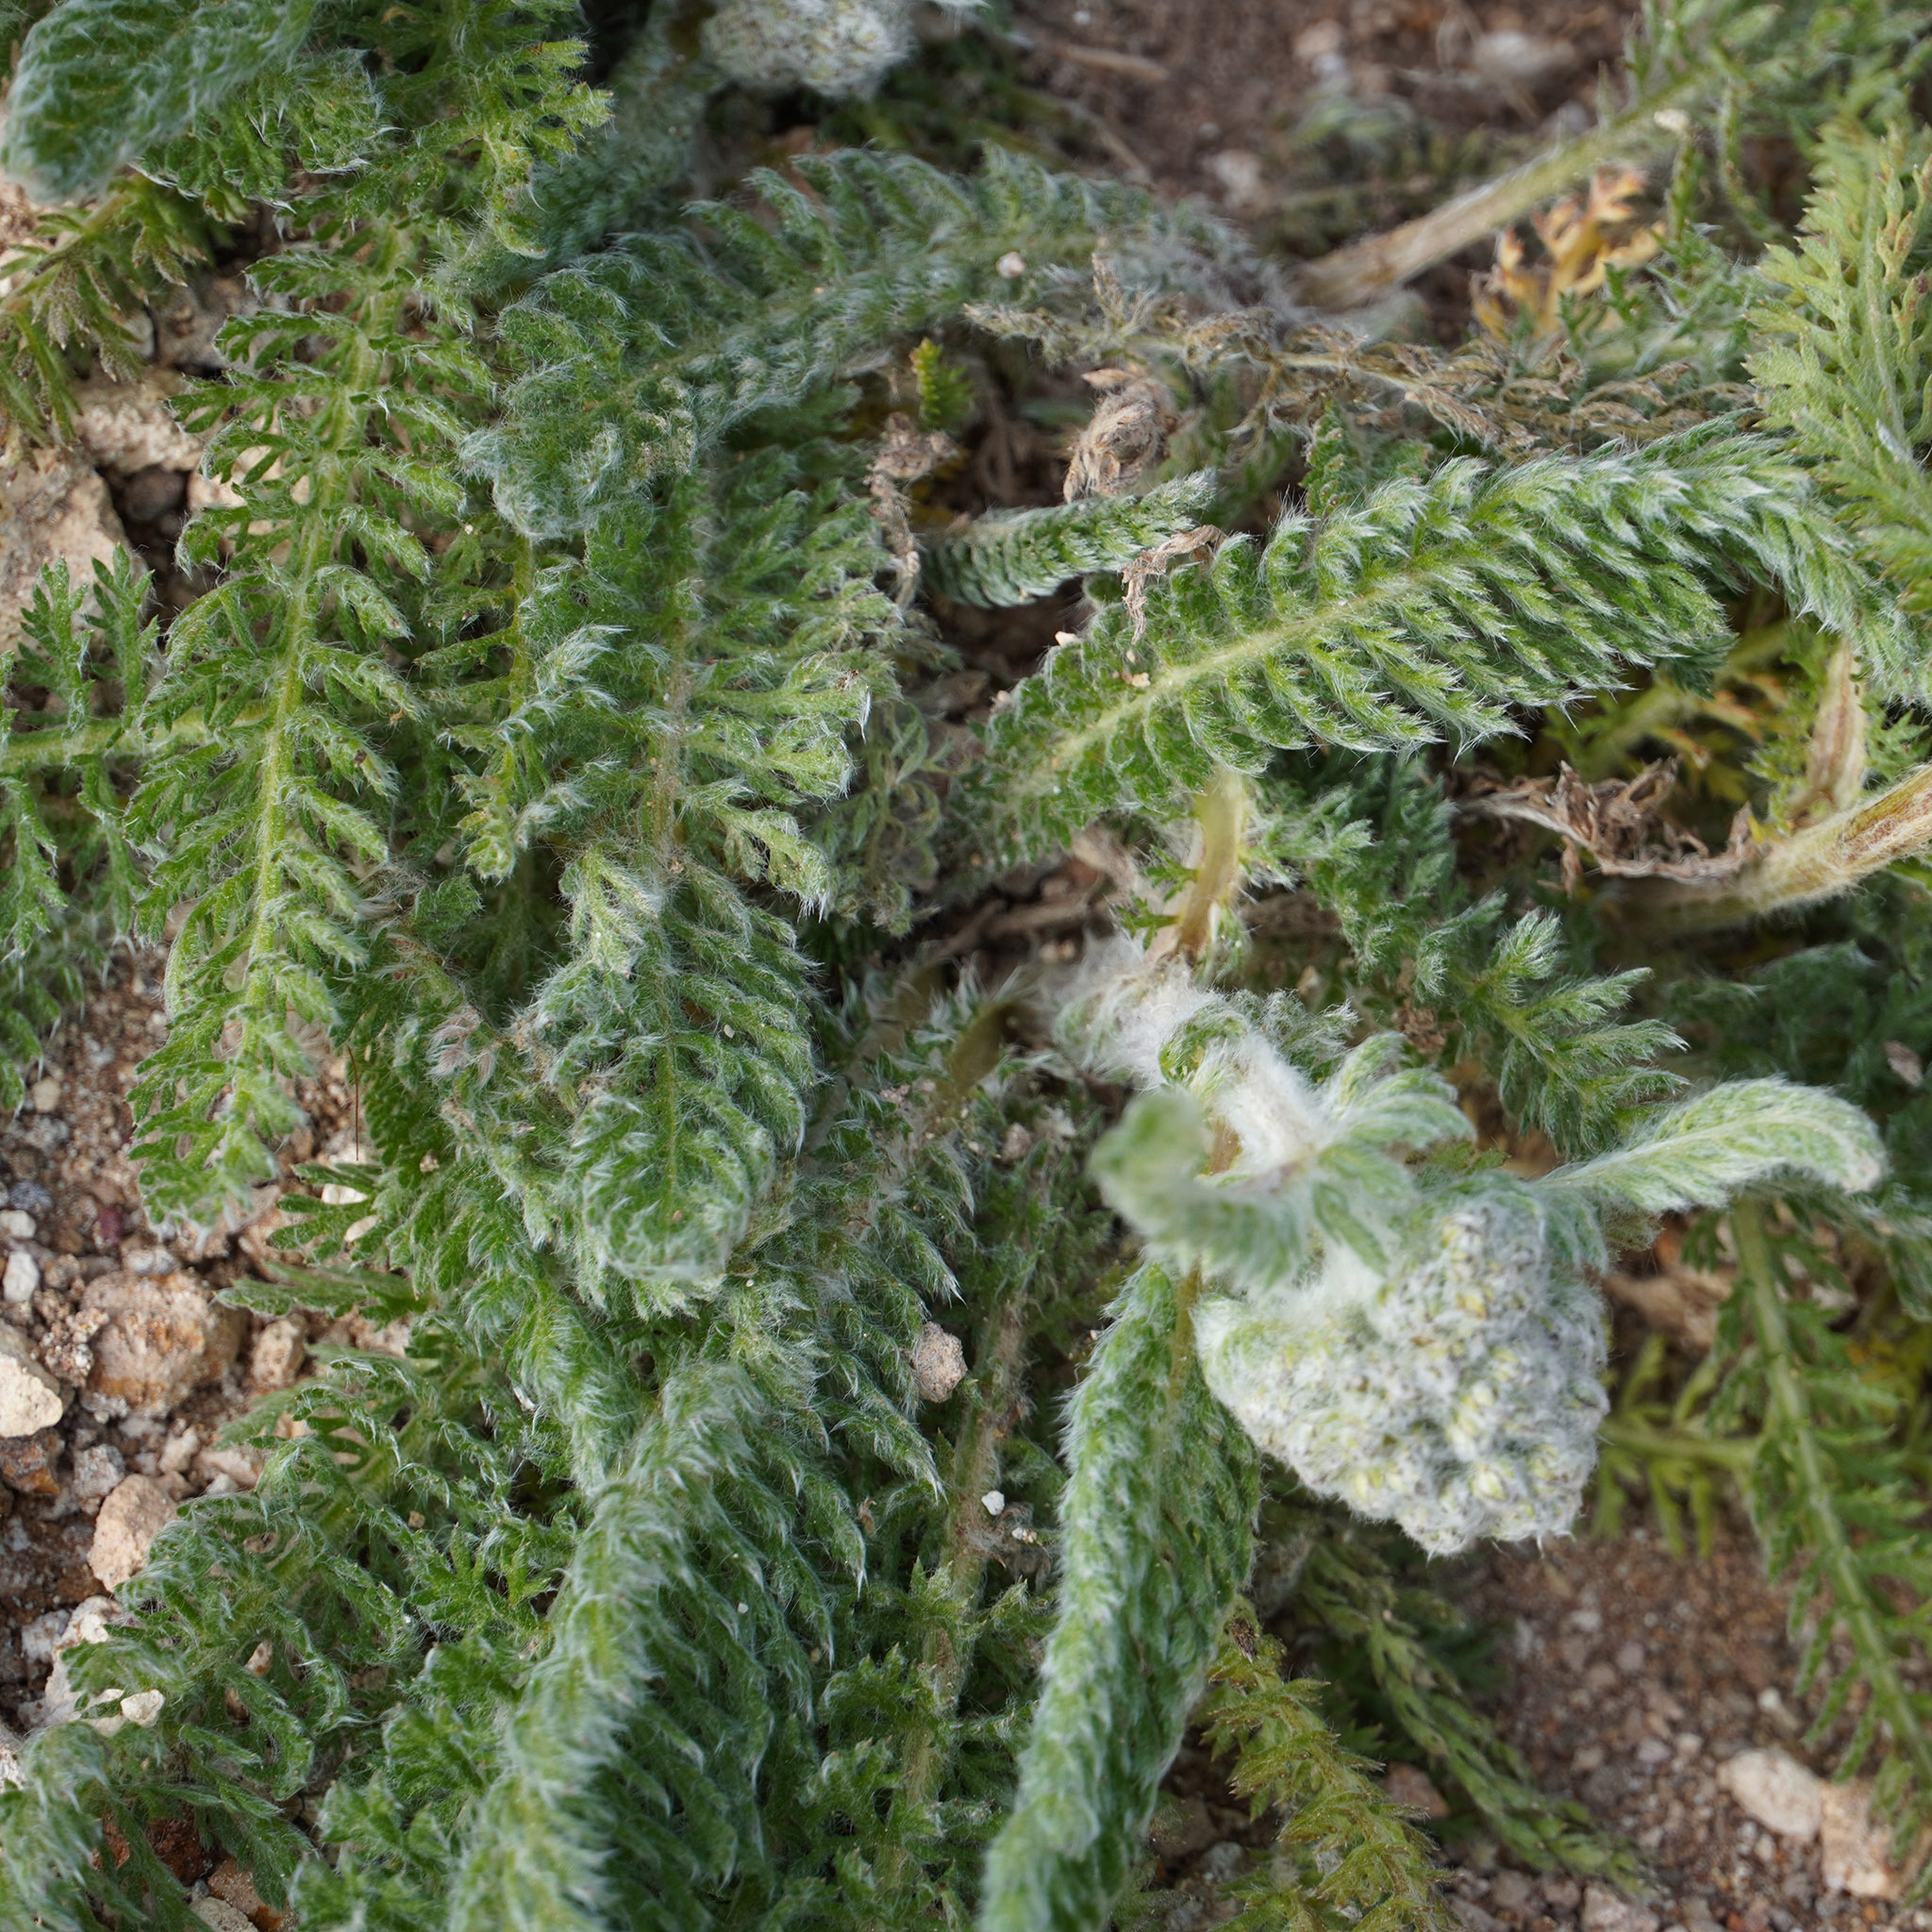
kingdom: Plantae
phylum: Tracheophyta
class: Magnoliopsida
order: Asterales
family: Asteraceae
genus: Achillea
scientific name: Achillea millefolium
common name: Yarrow
